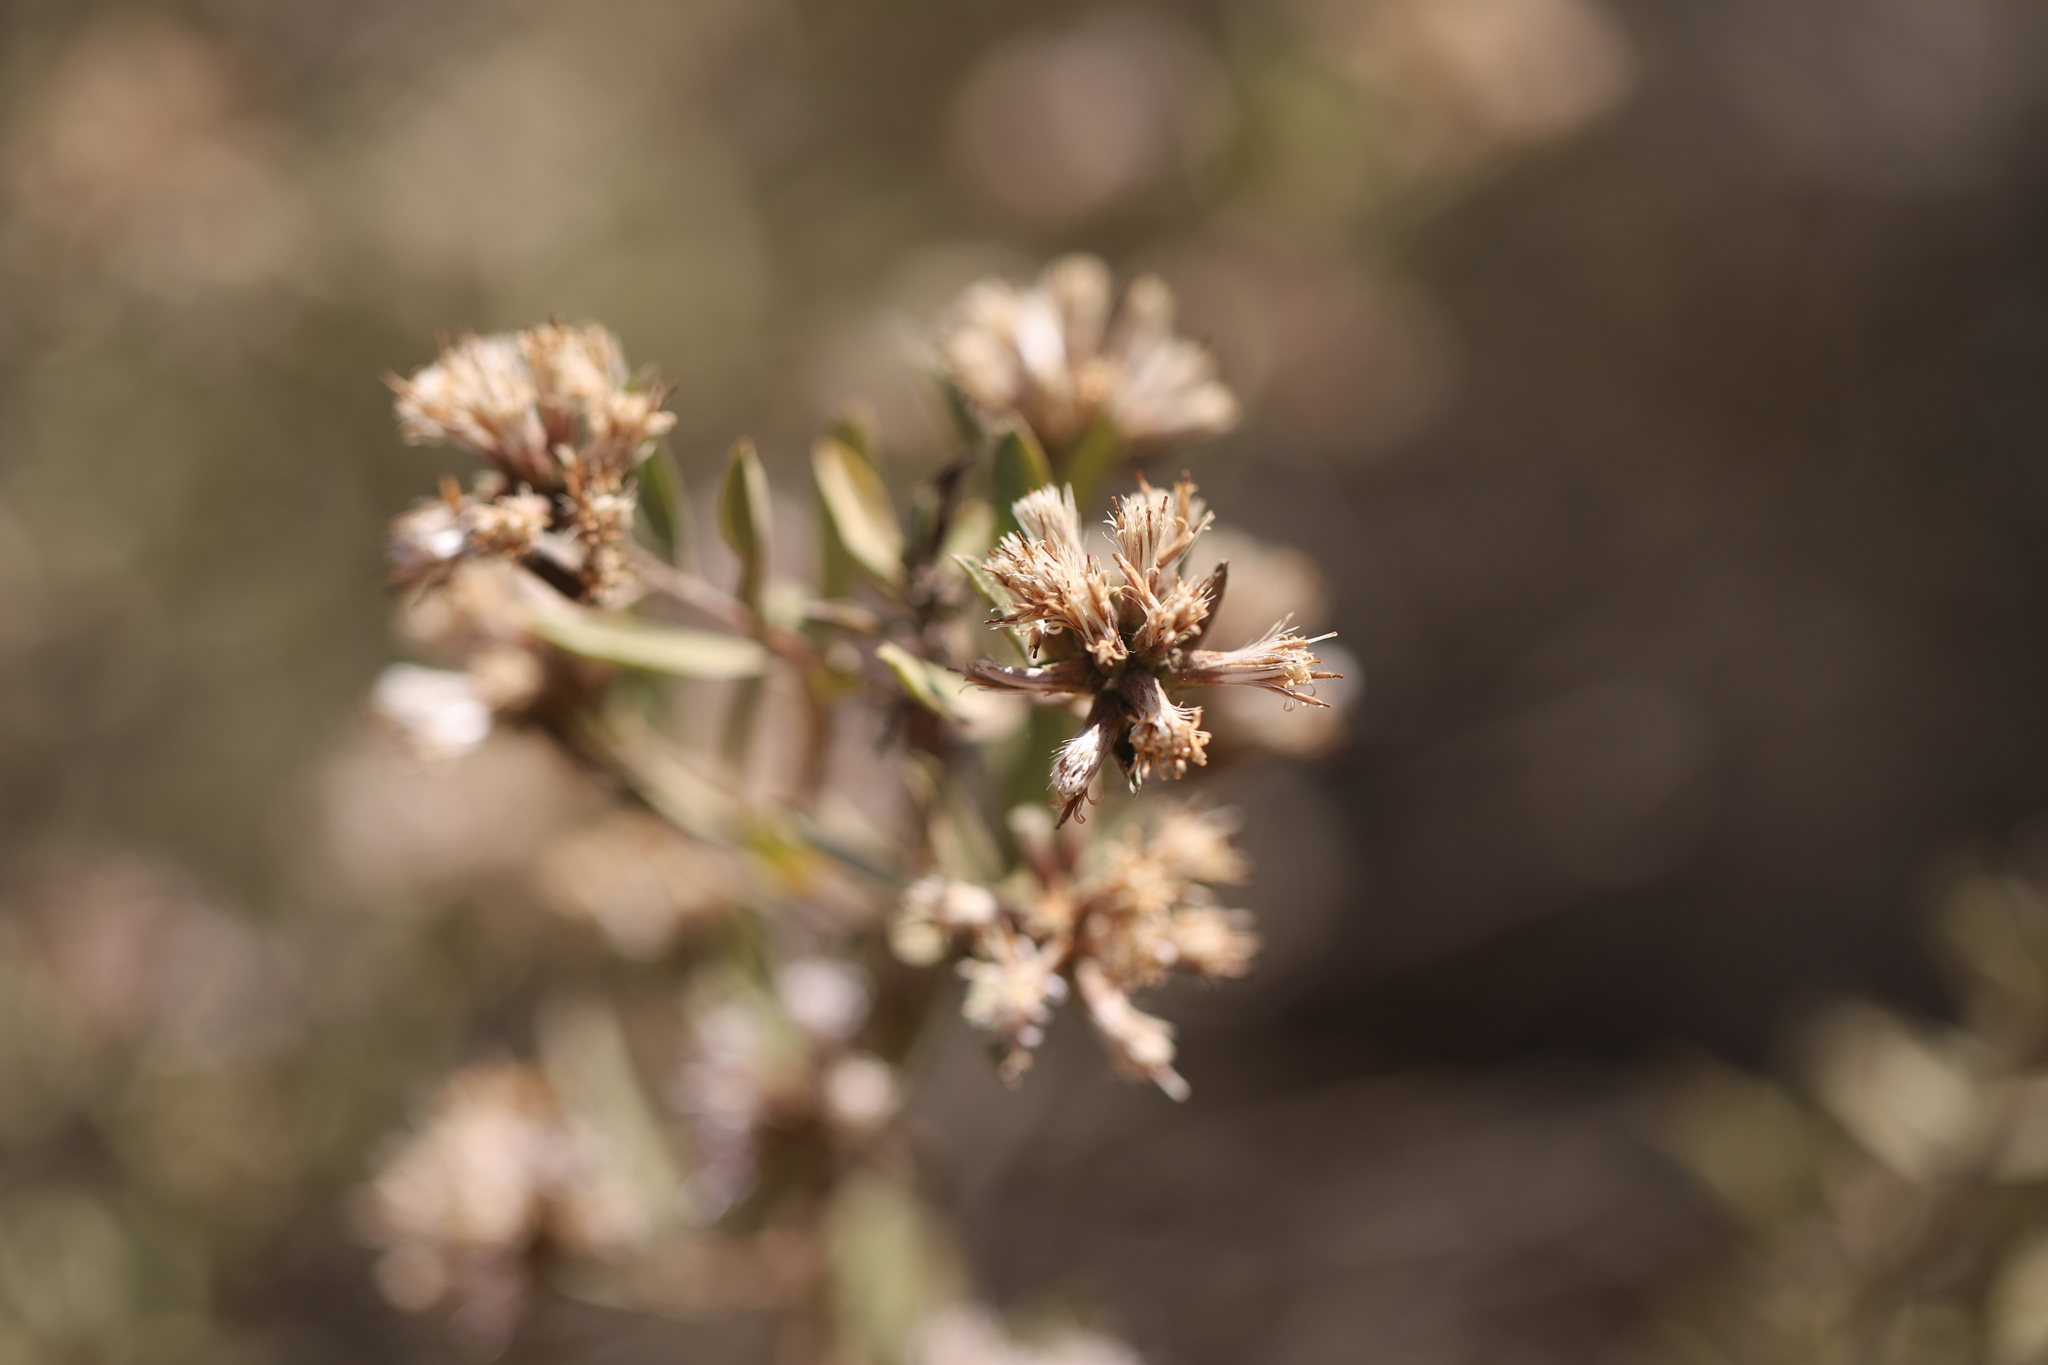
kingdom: Plantae
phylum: Tracheophyta
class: Magnoliopsida
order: Asterales
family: Asteraceae
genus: Proustia
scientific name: Proustia cuneifolia
